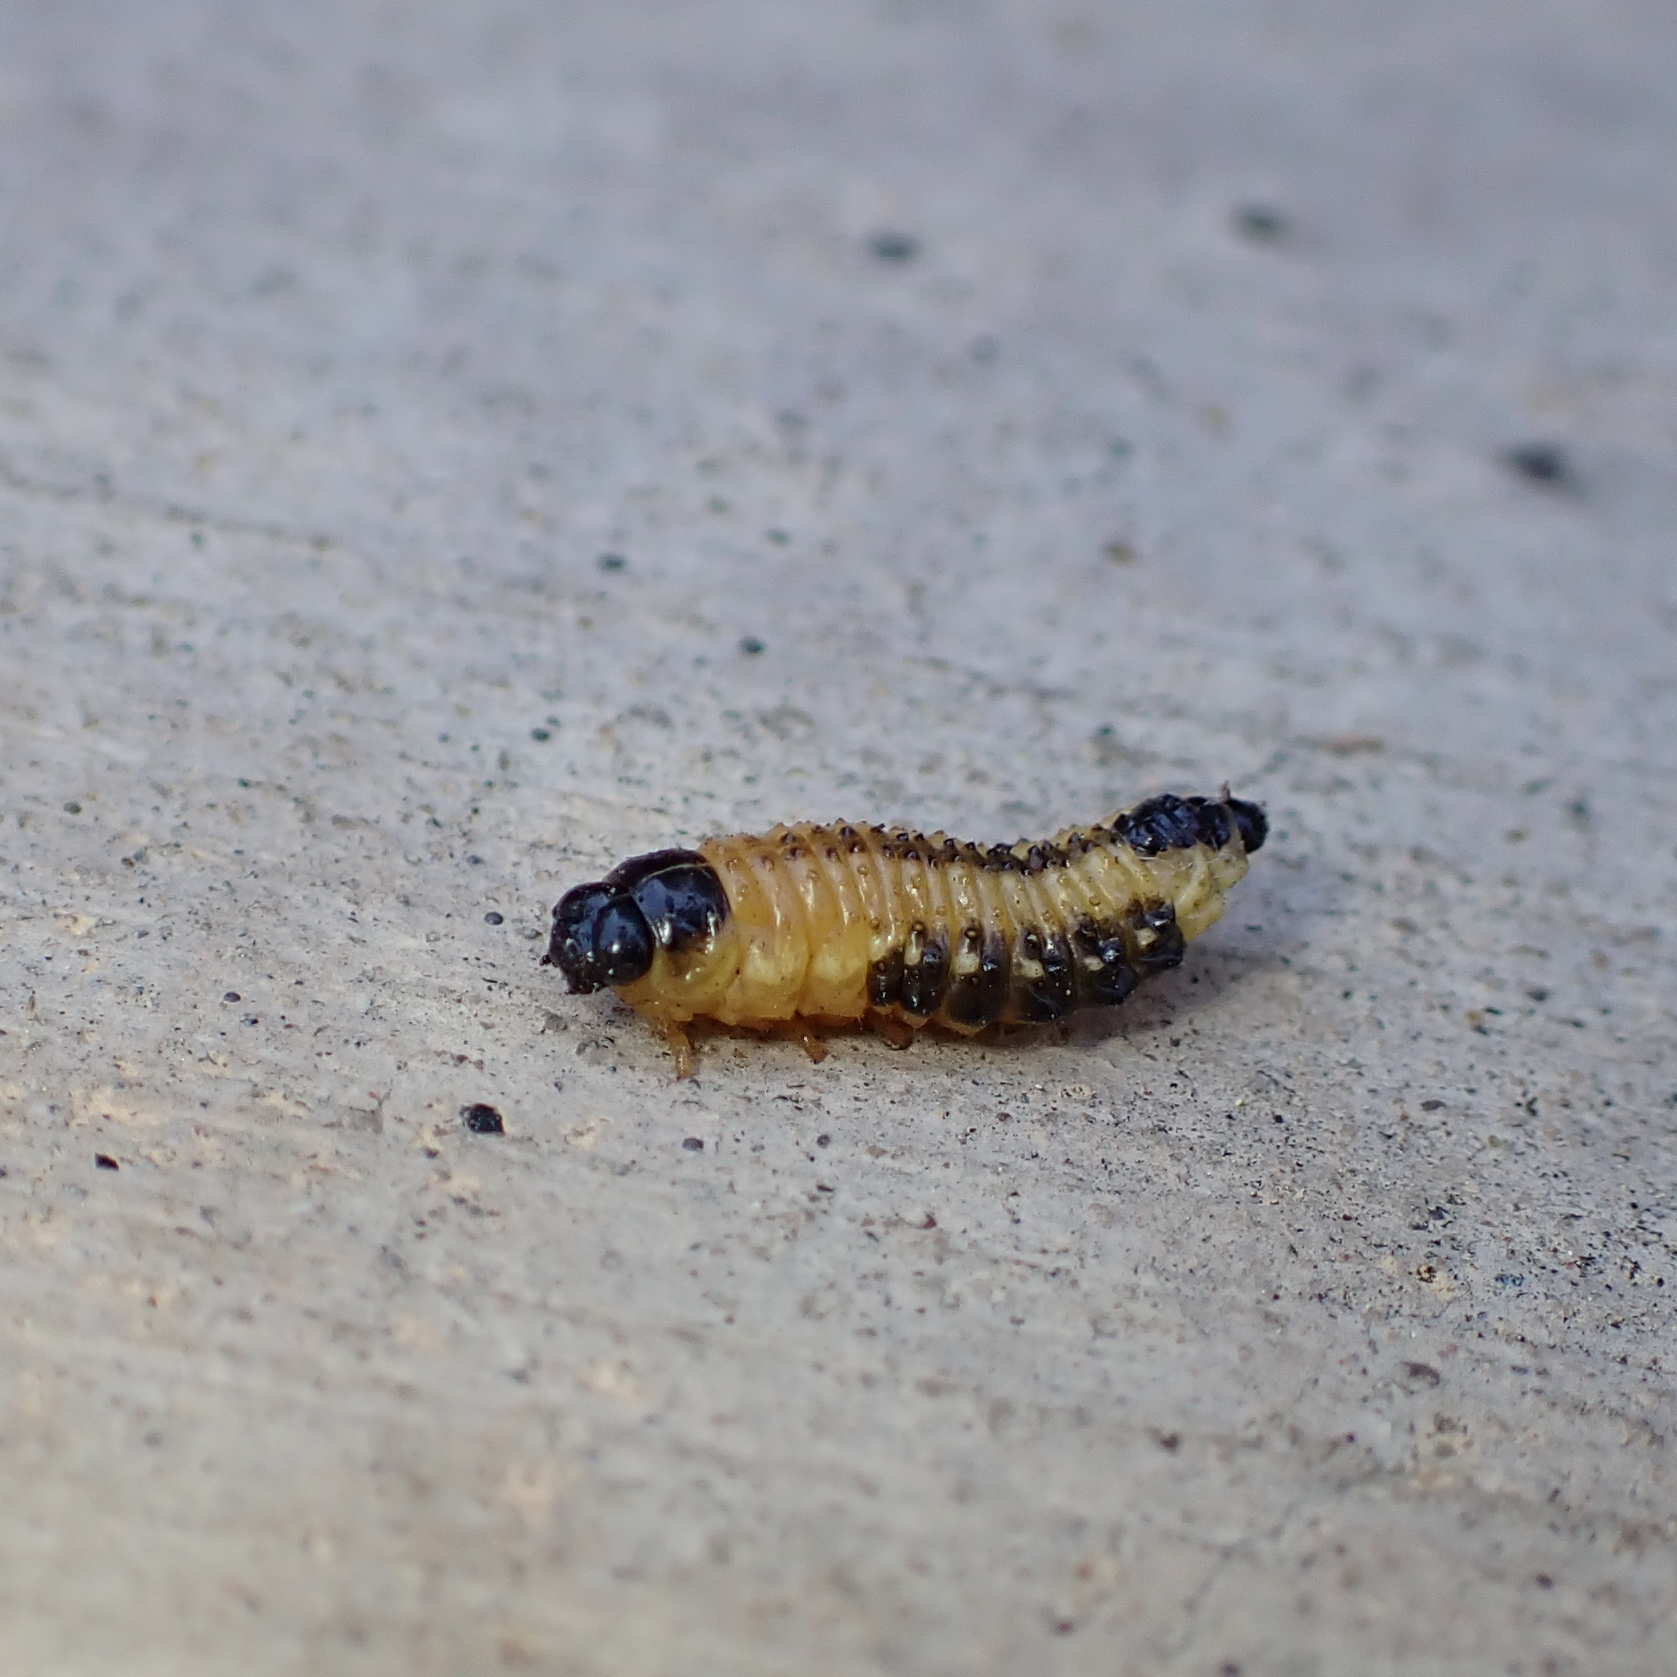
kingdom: Animalia
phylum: Arthropoda
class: Insecta
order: Coleoptera
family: Chrysomelidae
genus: Paropsis
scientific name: Paropsis
